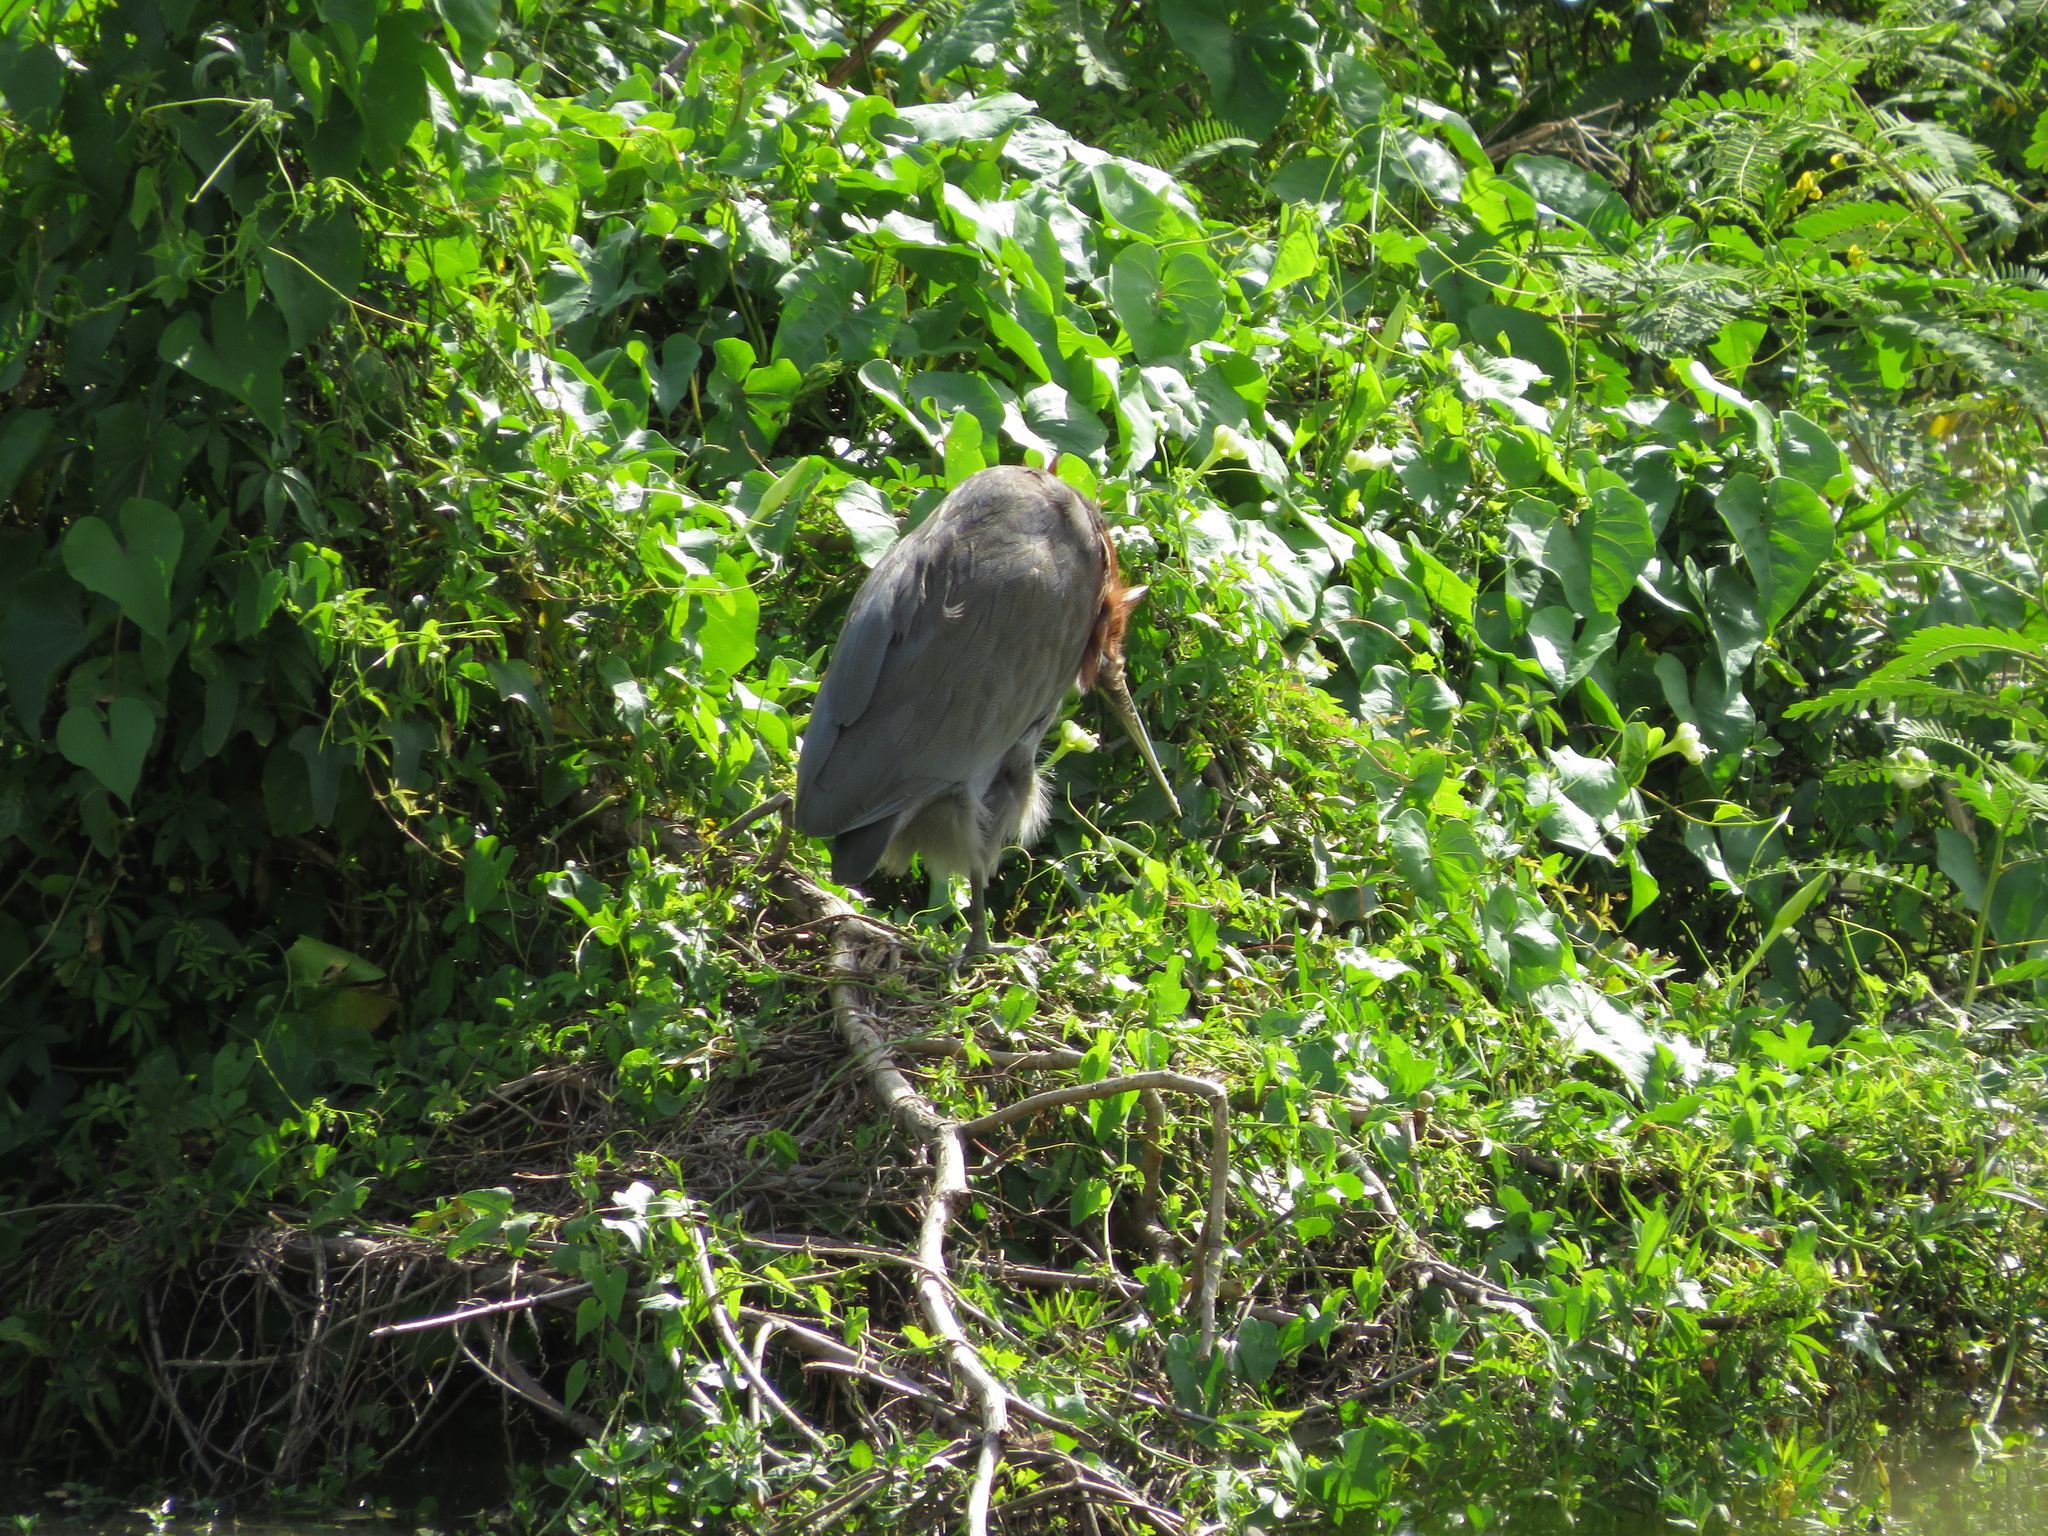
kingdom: Animalia
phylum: Chordata
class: Aves
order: Pelecaniformes
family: Ardeidae
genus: Tigrisoma
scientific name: Tigrisoma lineatum
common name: Rufescent tiger-heron
